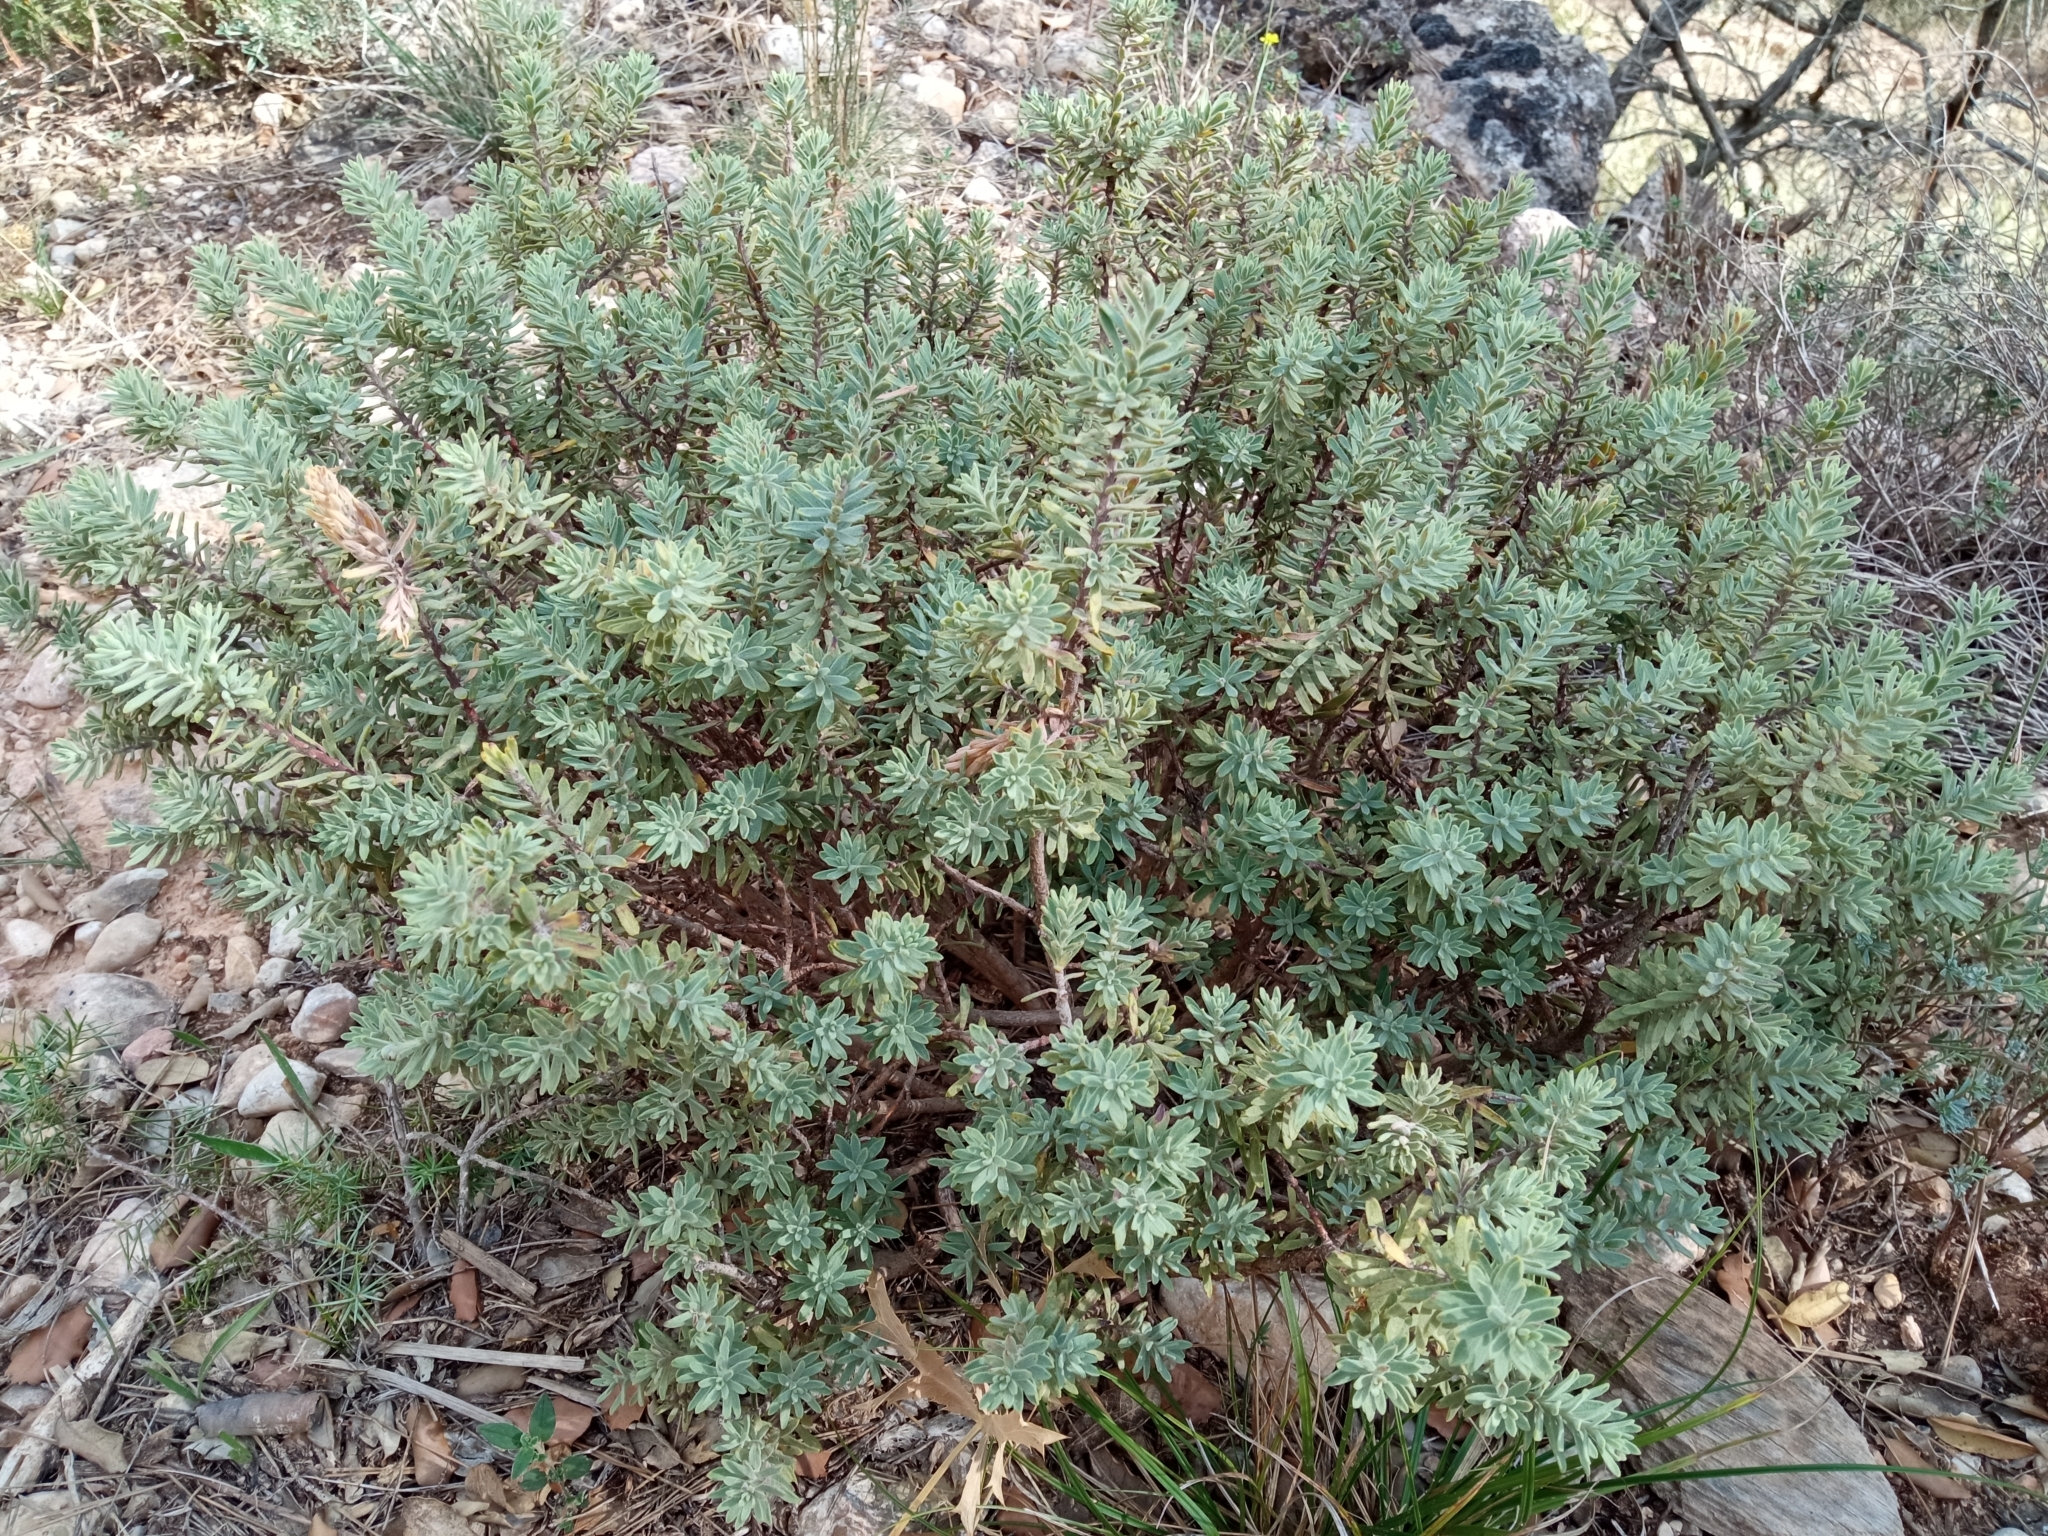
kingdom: Plantae
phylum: Tracheophyta
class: Magnoliopsida
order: Malvales
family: Thymelaeaceae
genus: Thymelaea
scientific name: Thymelaea tinctoria
